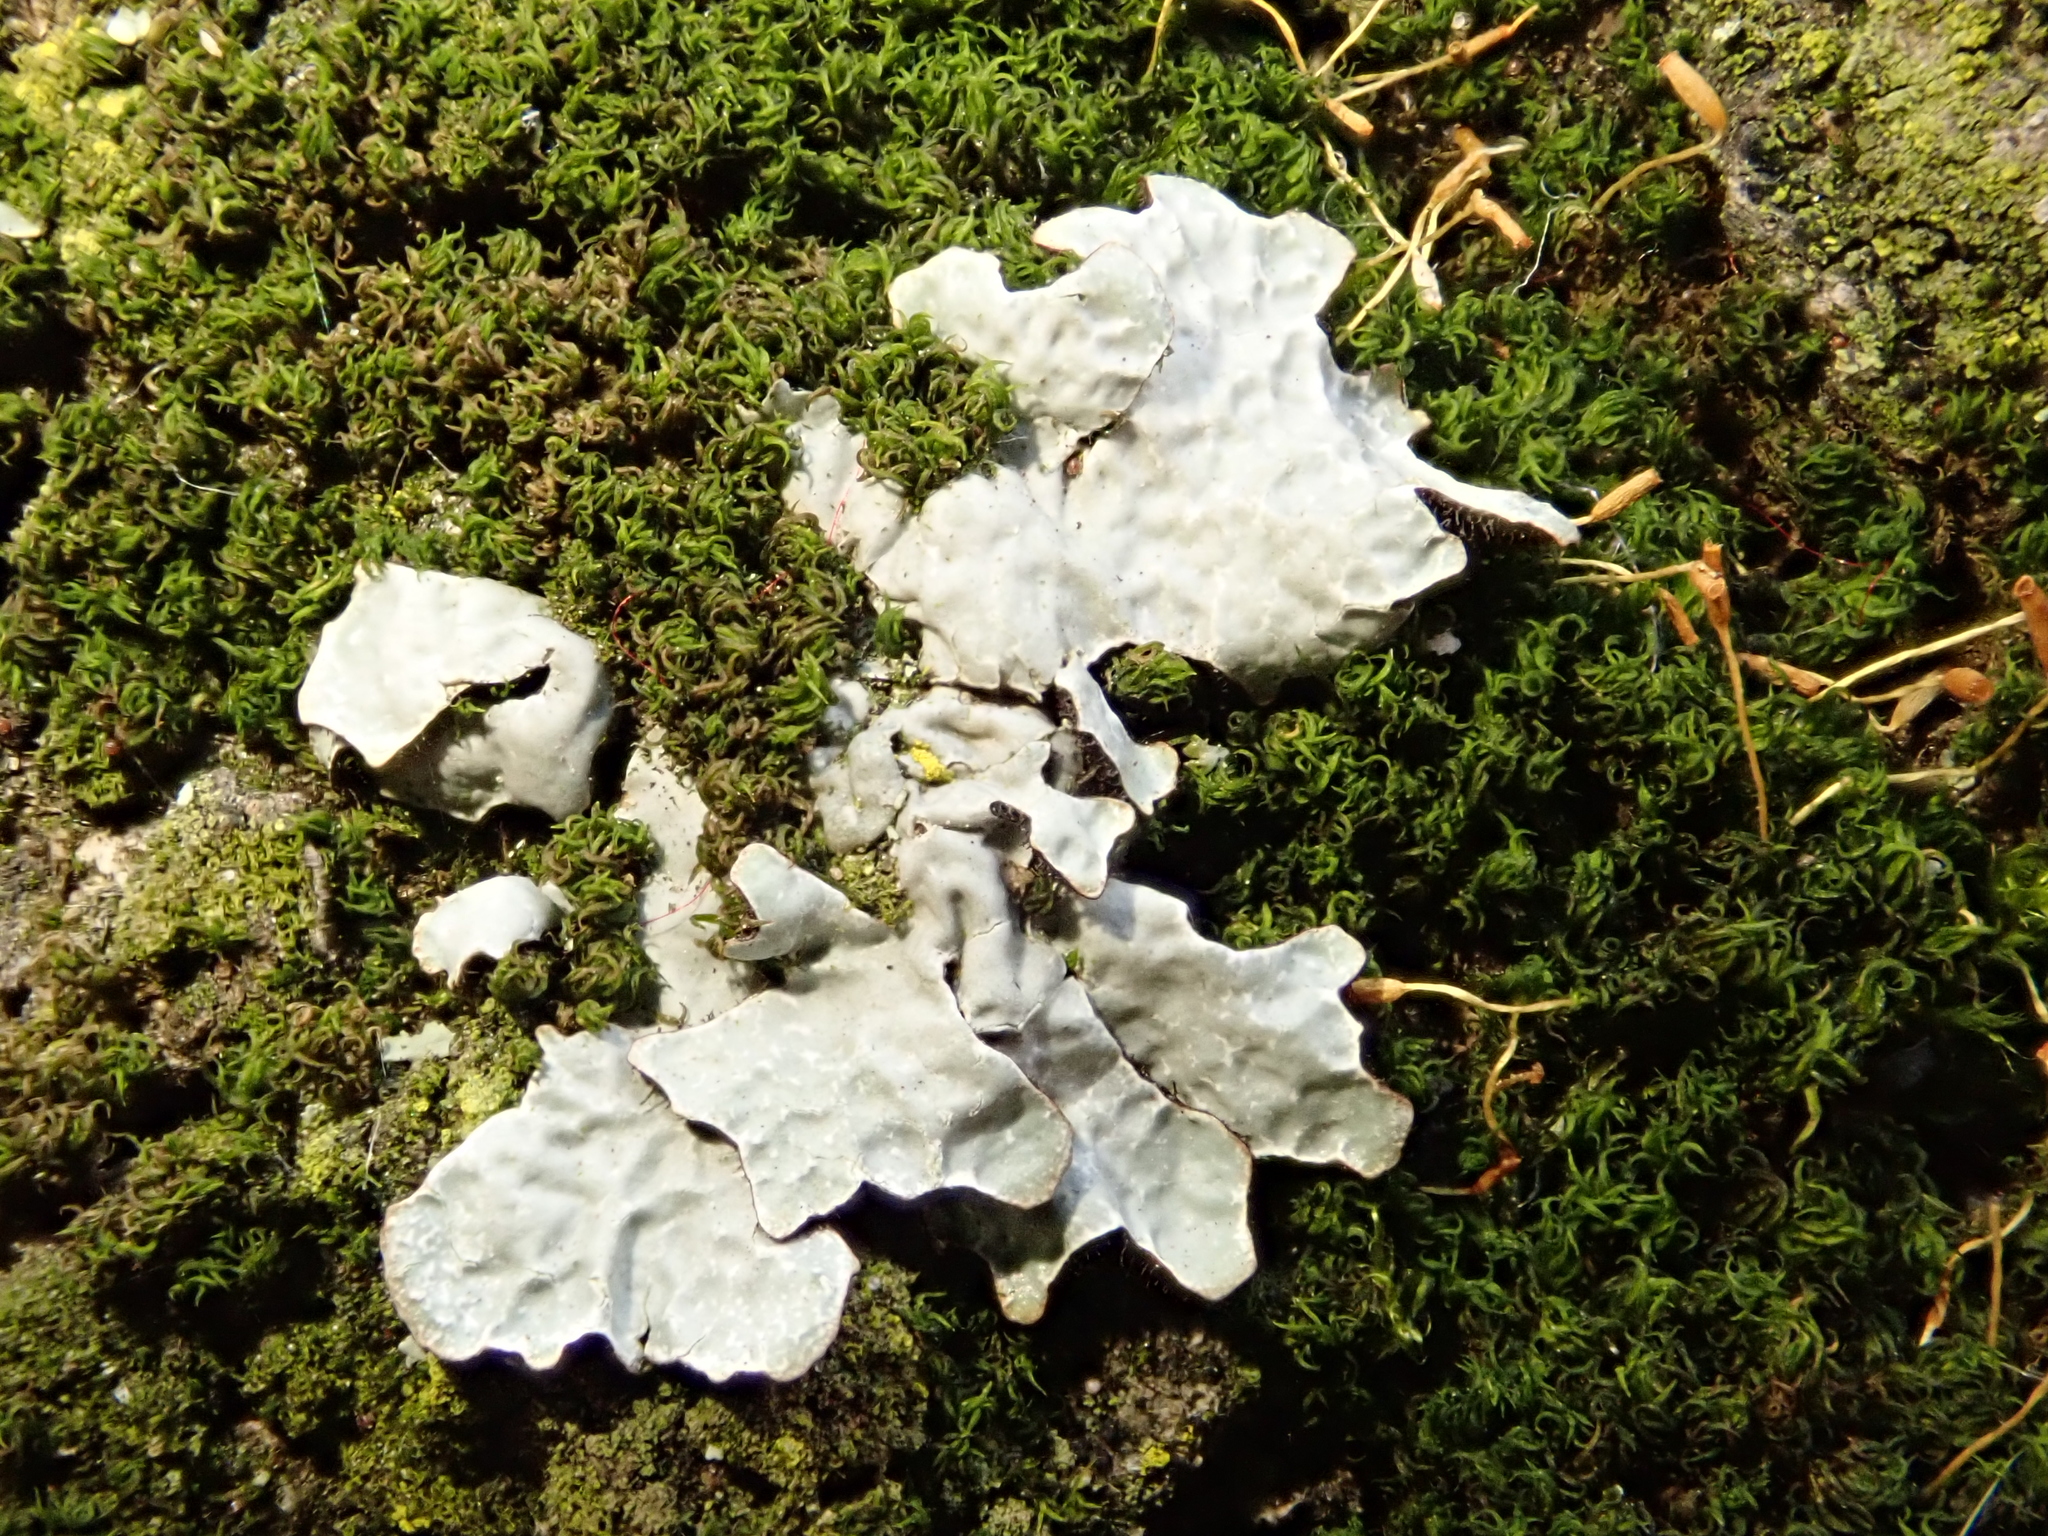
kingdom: Fungi
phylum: Ascomycota
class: Lecanoromycetes
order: Lecanorales
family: Parmeliaceae
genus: Parmelia
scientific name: Parmelia sulcata
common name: Netted shield lichen
